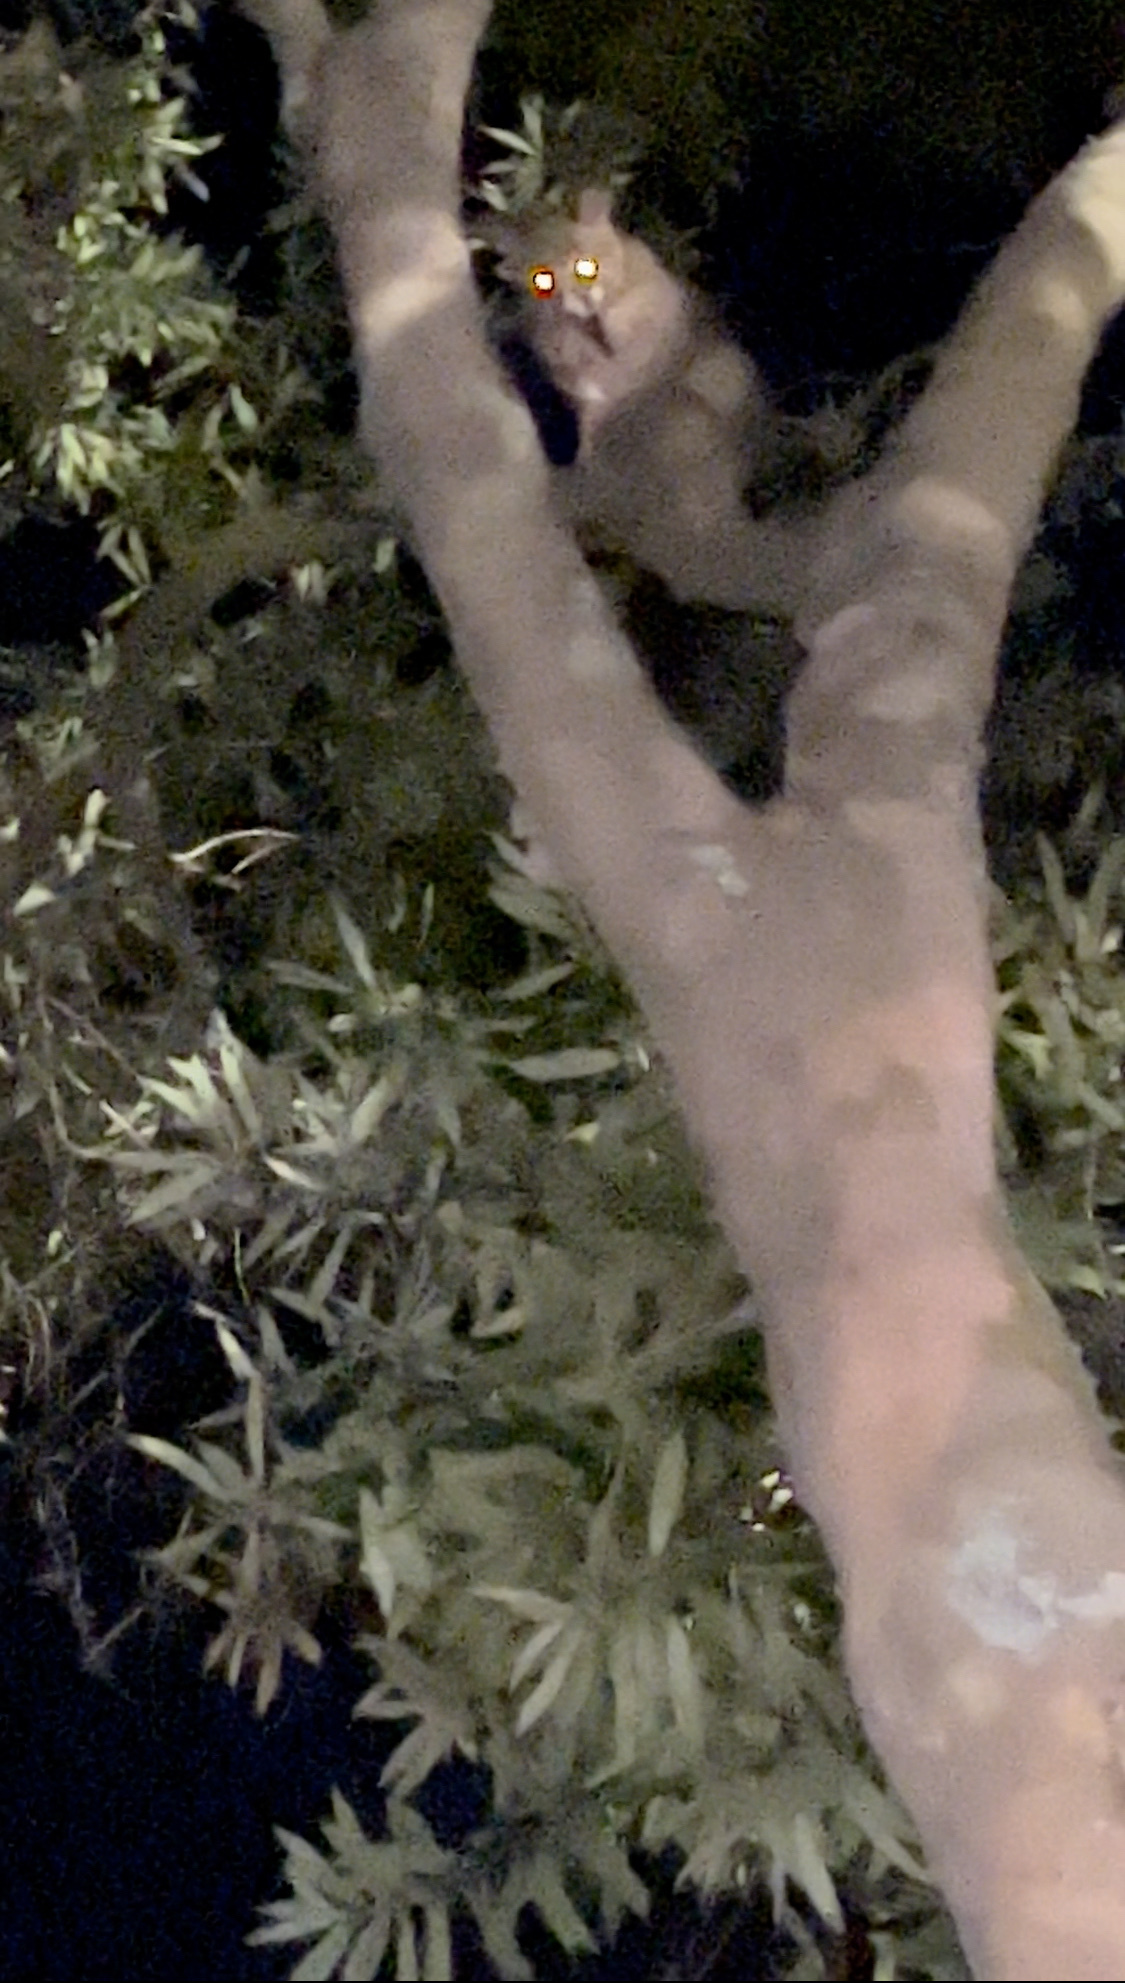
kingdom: Animalia
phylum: Chordata
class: Mammalia
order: Diprotodontia
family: Phalangeridae
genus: Trichosurus
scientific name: Trichosurus vulpecula
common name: Common brushtail
